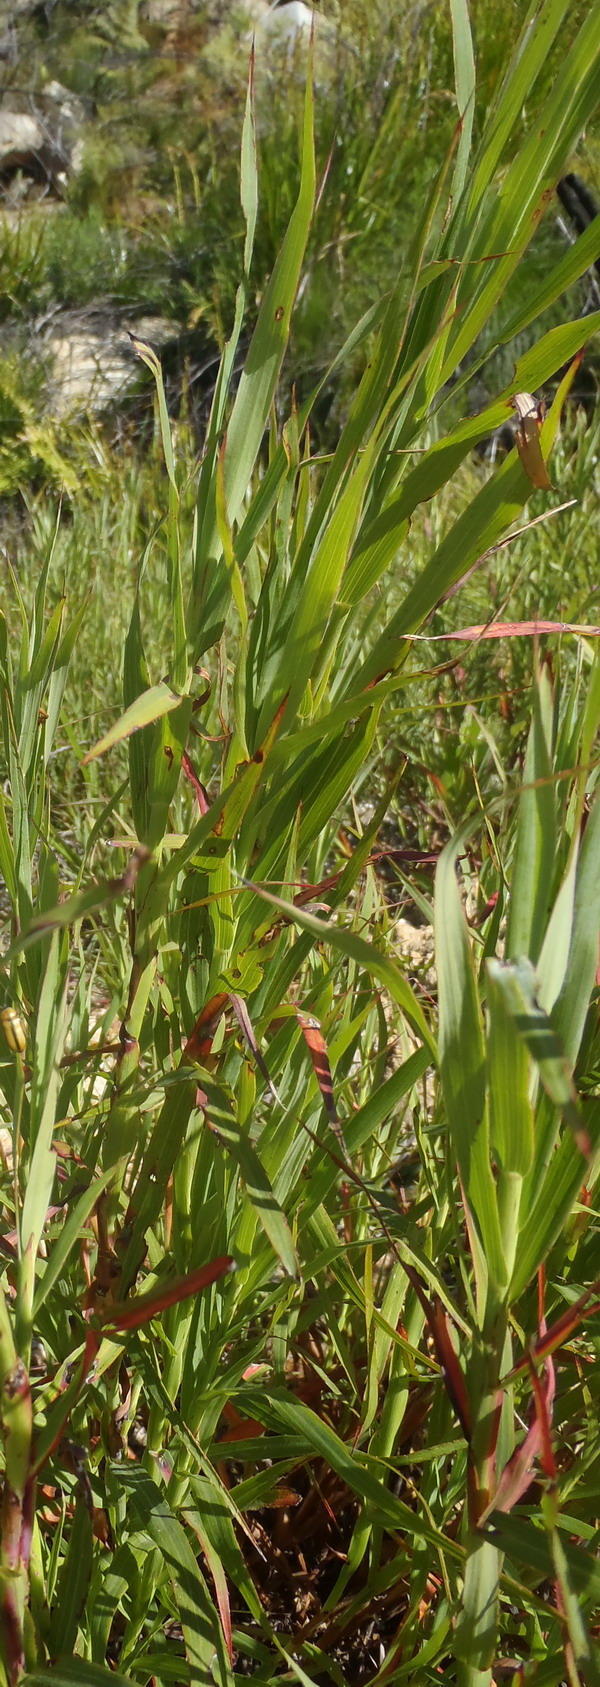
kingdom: Plantae
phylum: Tracheophyta
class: Magnoliopsida
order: Rosales
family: Rosaceae
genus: Cliffortia
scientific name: Cliffortia graminea
